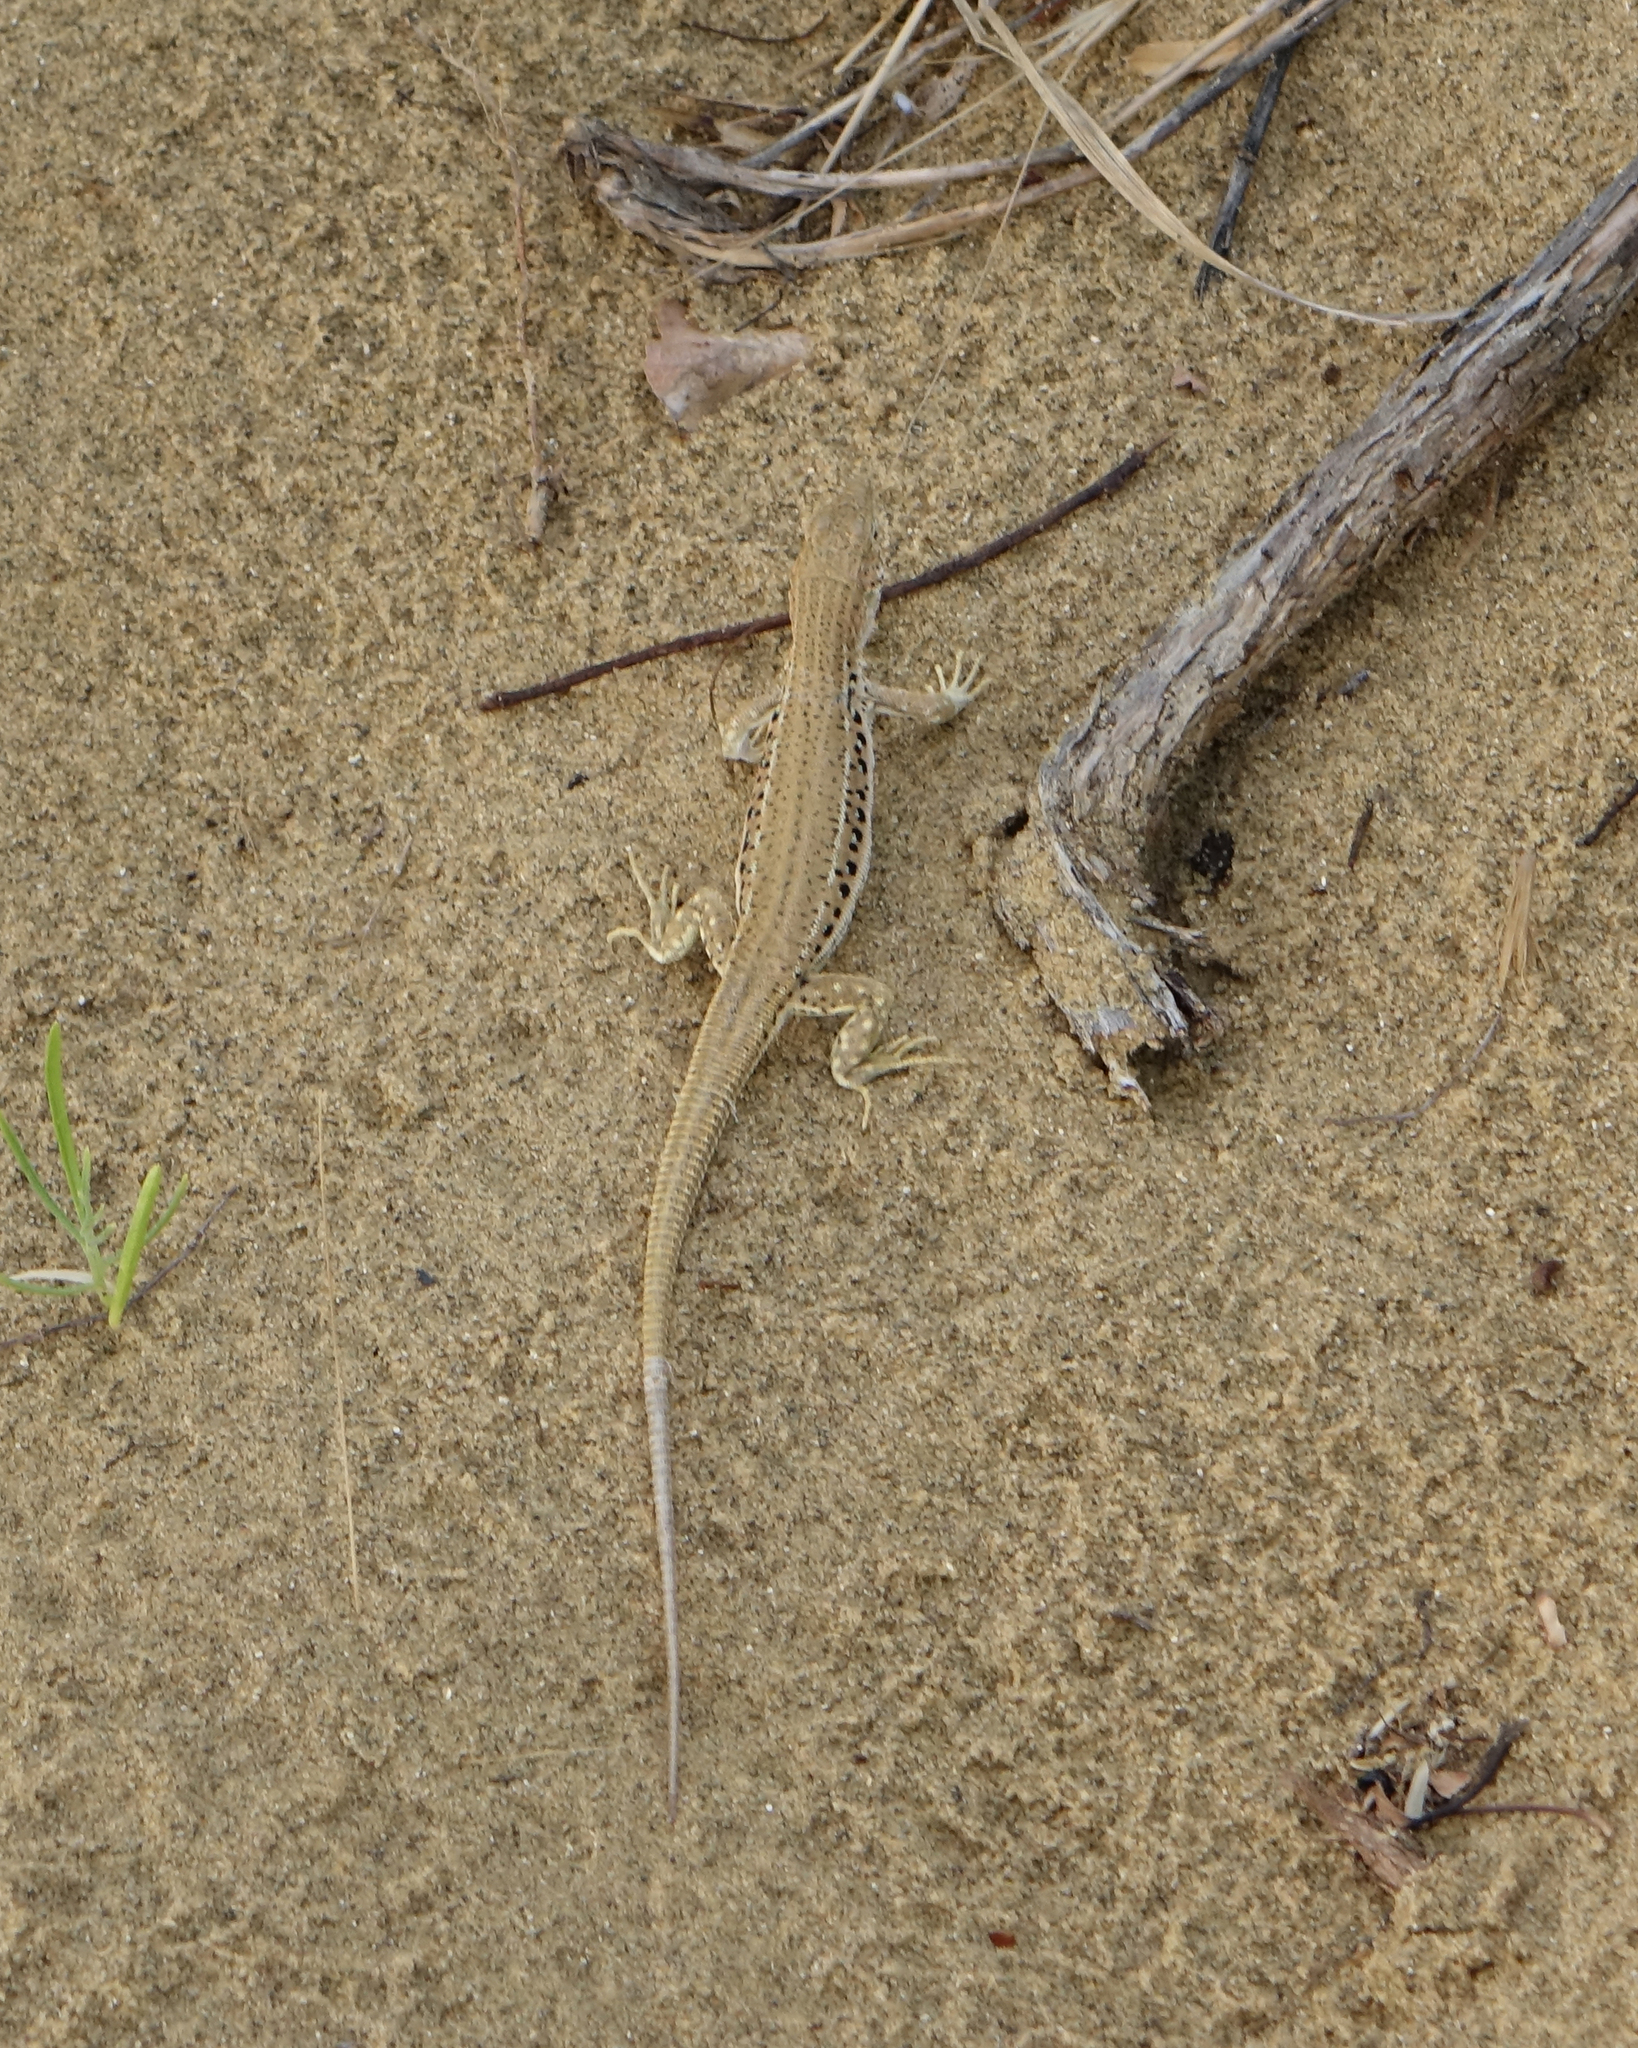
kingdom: Animalia
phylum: Chordata
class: Squamata
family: Lacertidae
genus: Eremias
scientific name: Eremias velox
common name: Central asian racerunner
